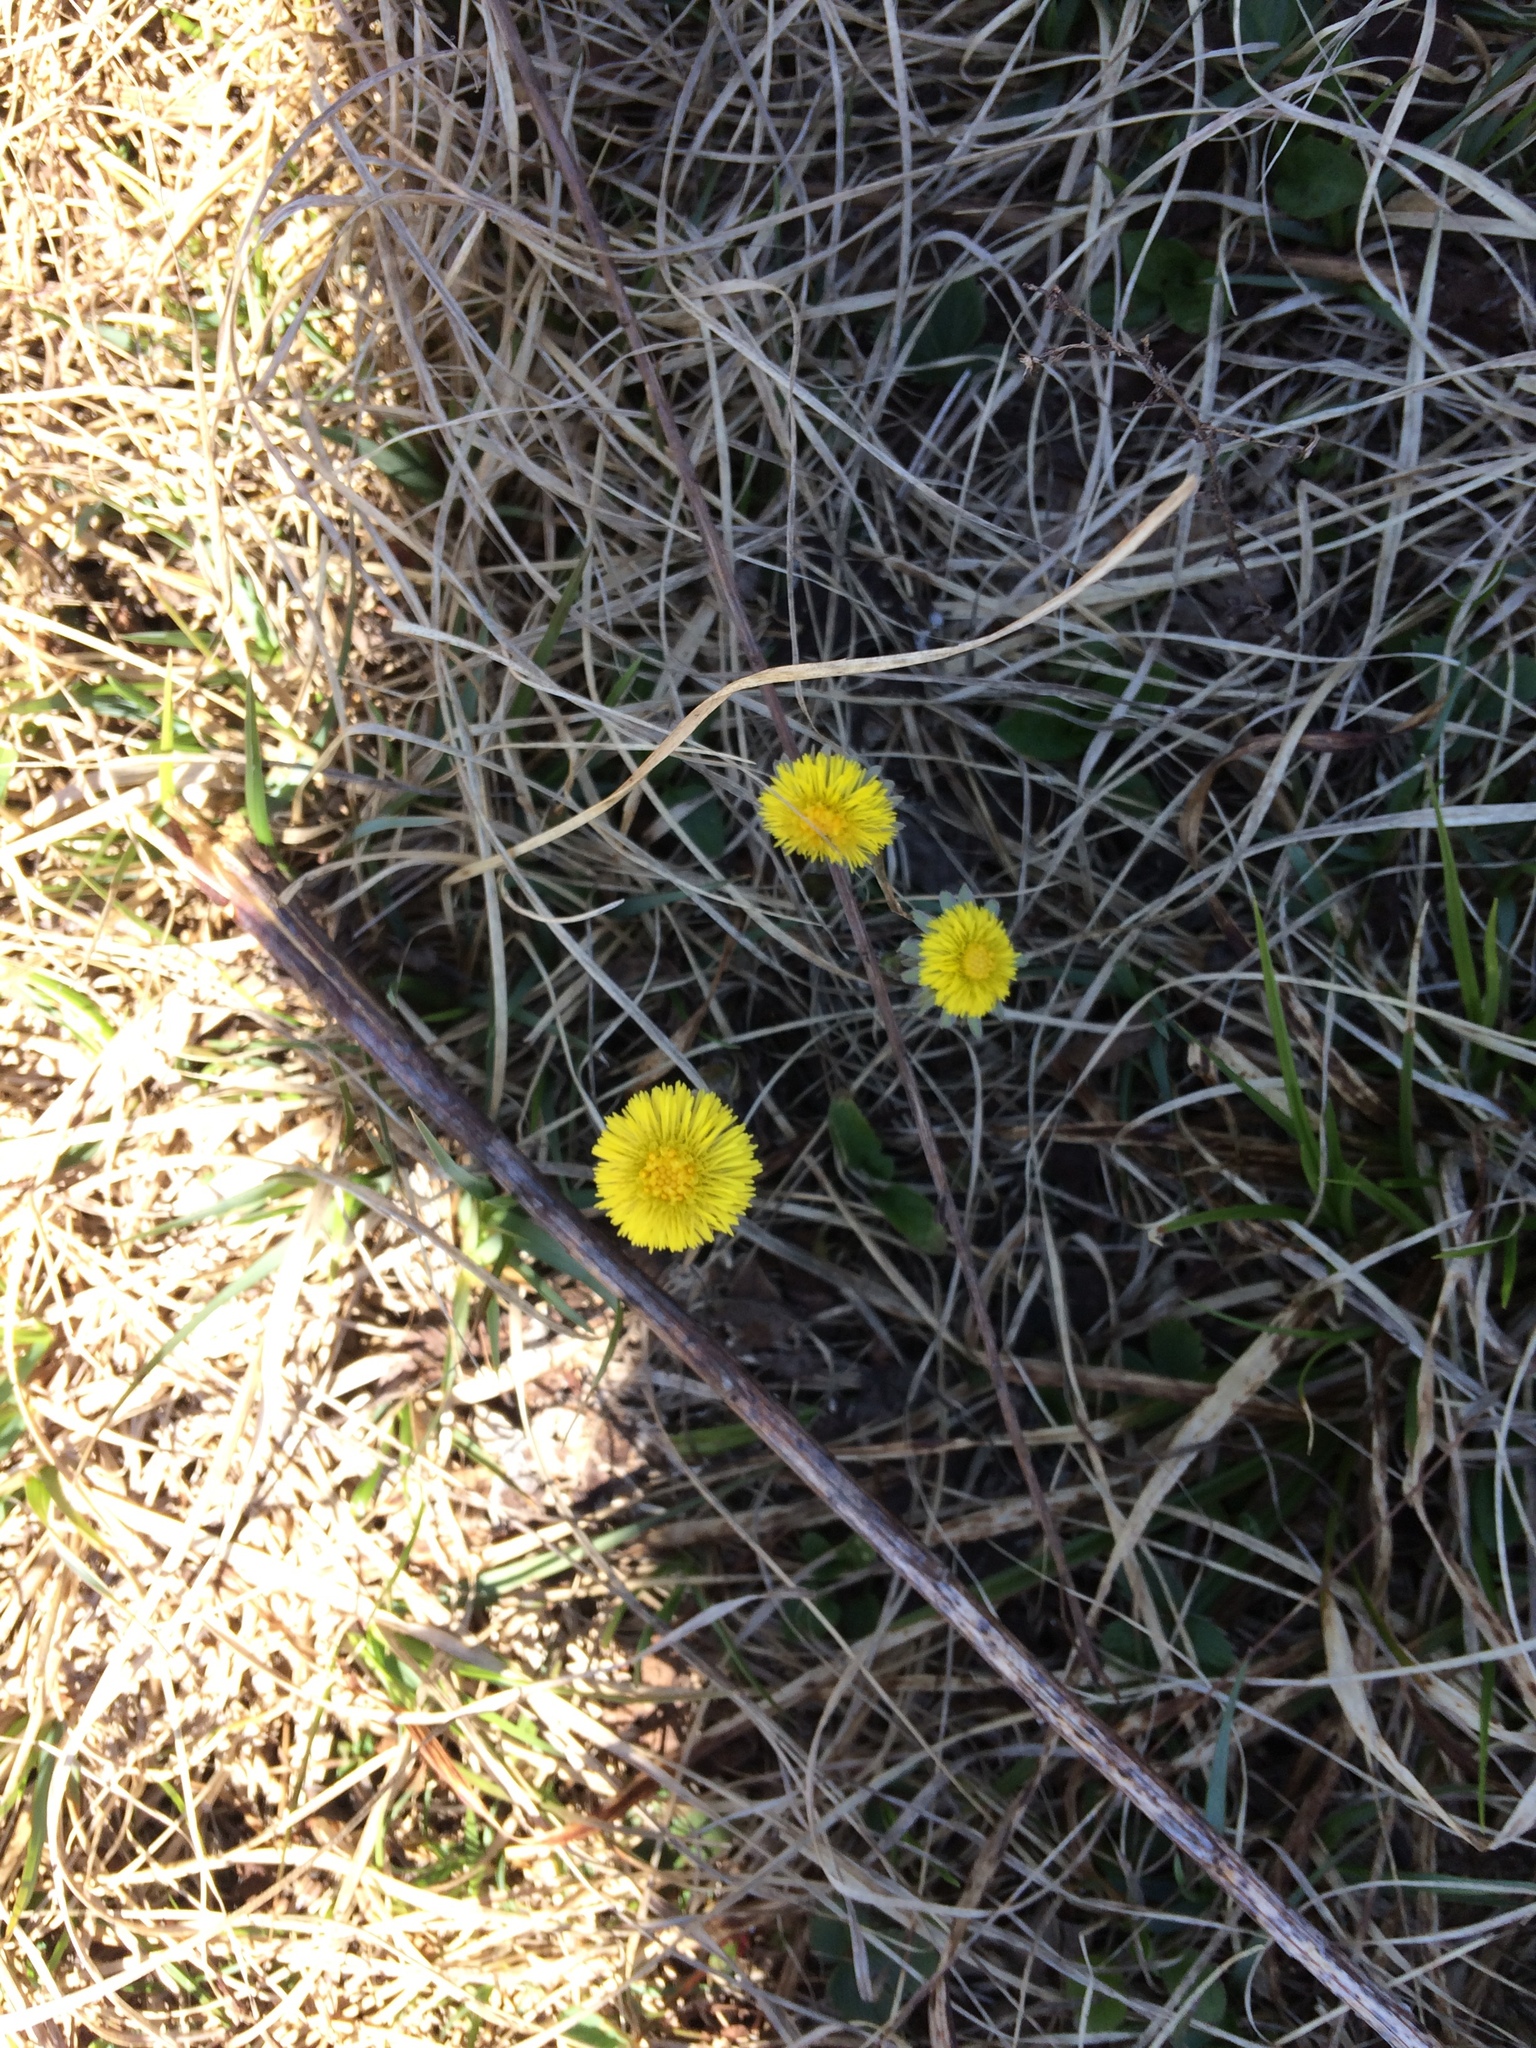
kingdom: Plantae
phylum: Tracheophyta
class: Magnoliopsida
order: Asterales
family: Asteraceae
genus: Tussilago
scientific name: Tussilago farfara
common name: Coltsfoot
